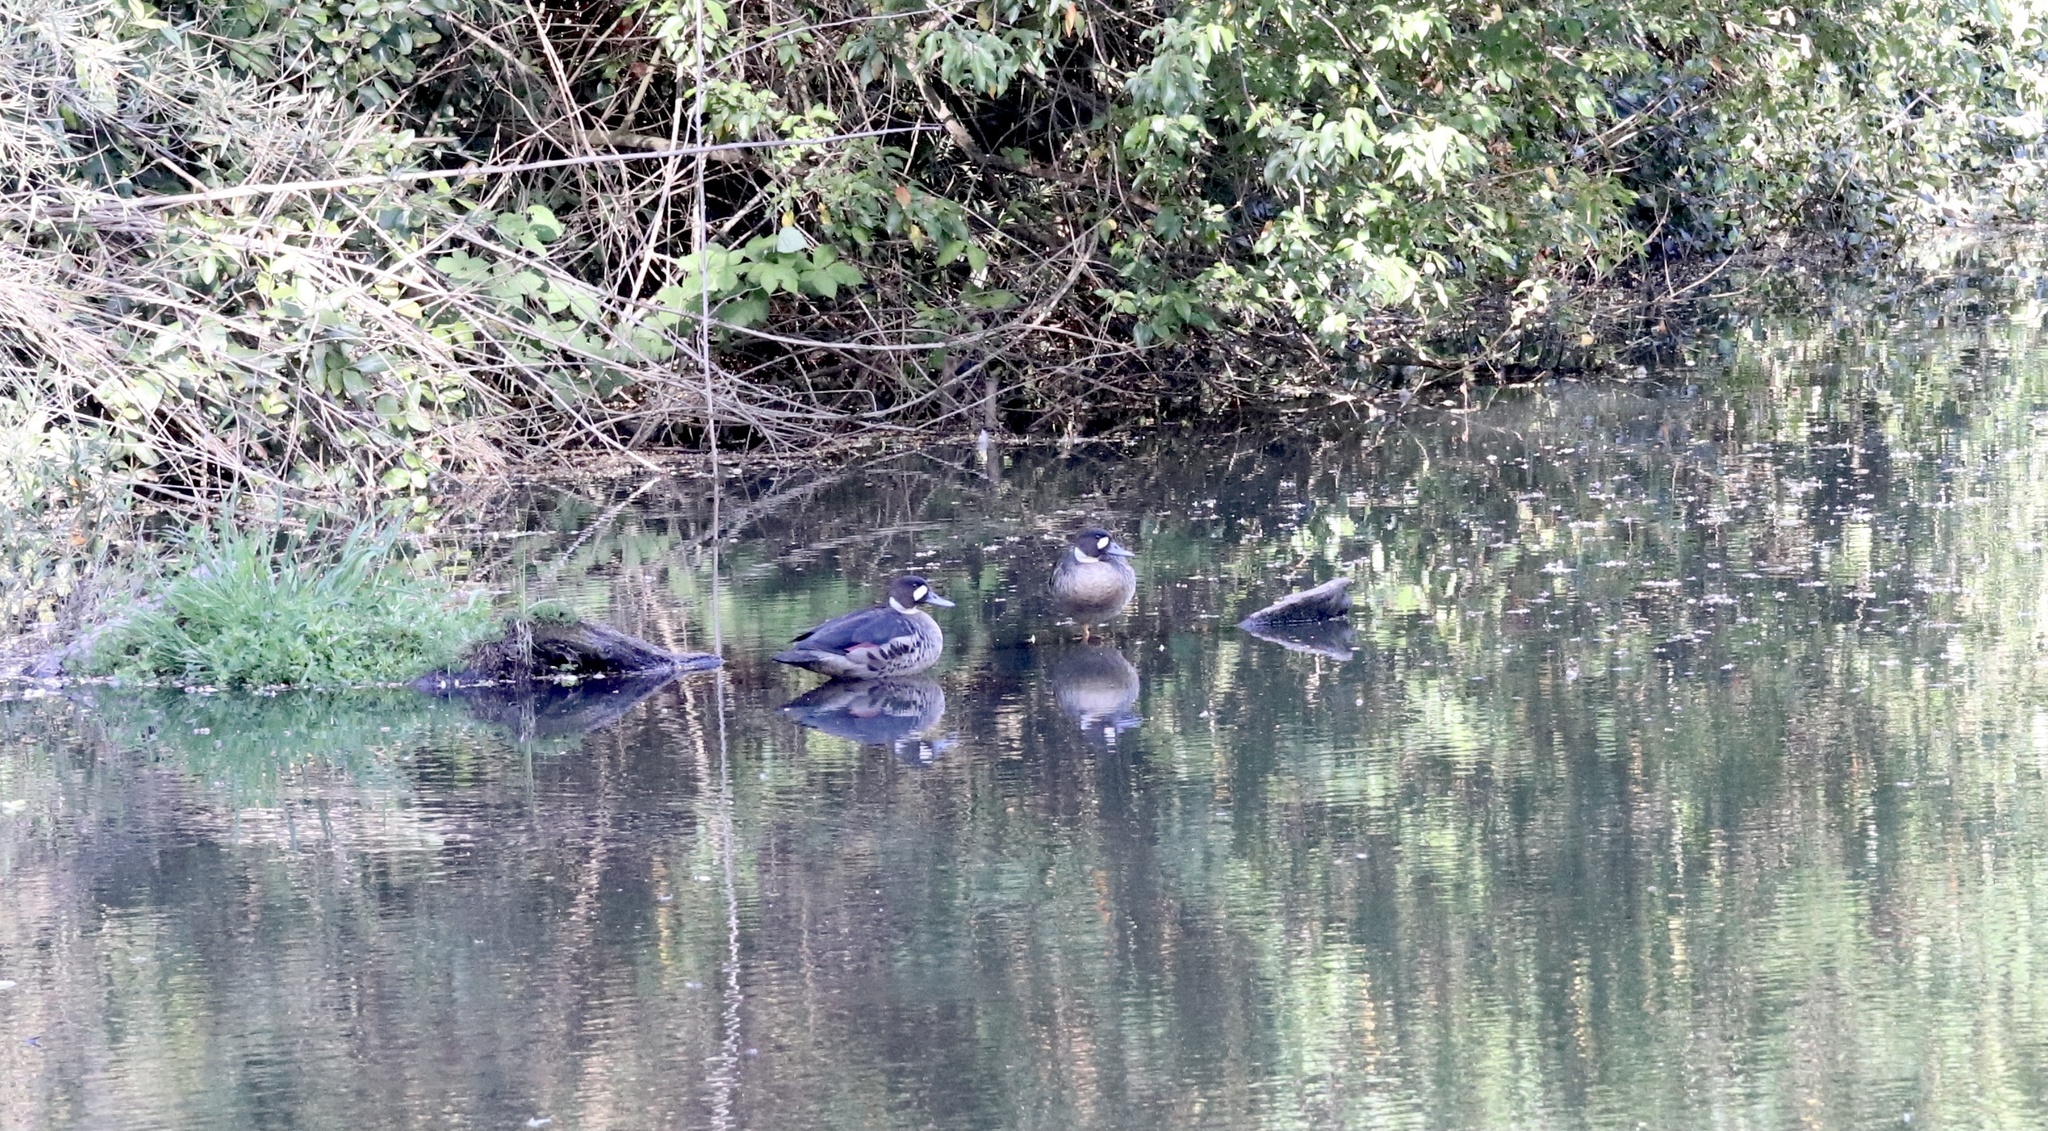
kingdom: Animalia
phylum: Chordata
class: Aves
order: Anseriformes
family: Anatidae
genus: Speculanas
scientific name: Speculanas specularis
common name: Bronze-winged duck
